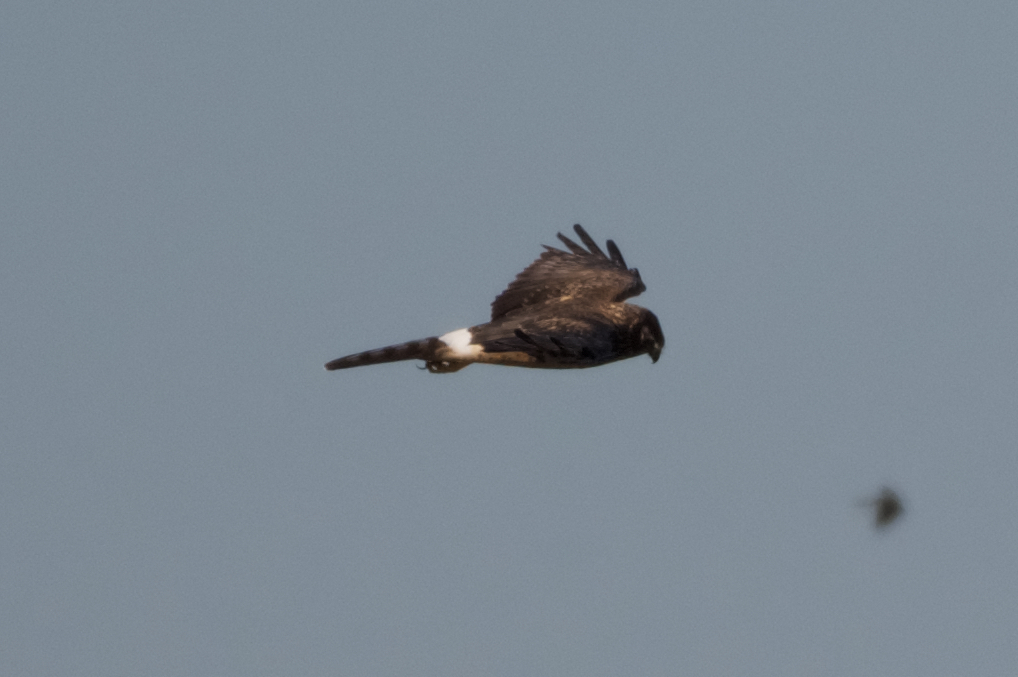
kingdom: Animalia
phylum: Chordata
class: Aves
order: Accipitriformes
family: Accipitridae
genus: Circus
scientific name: Circus cyaneus
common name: Hen harrier
